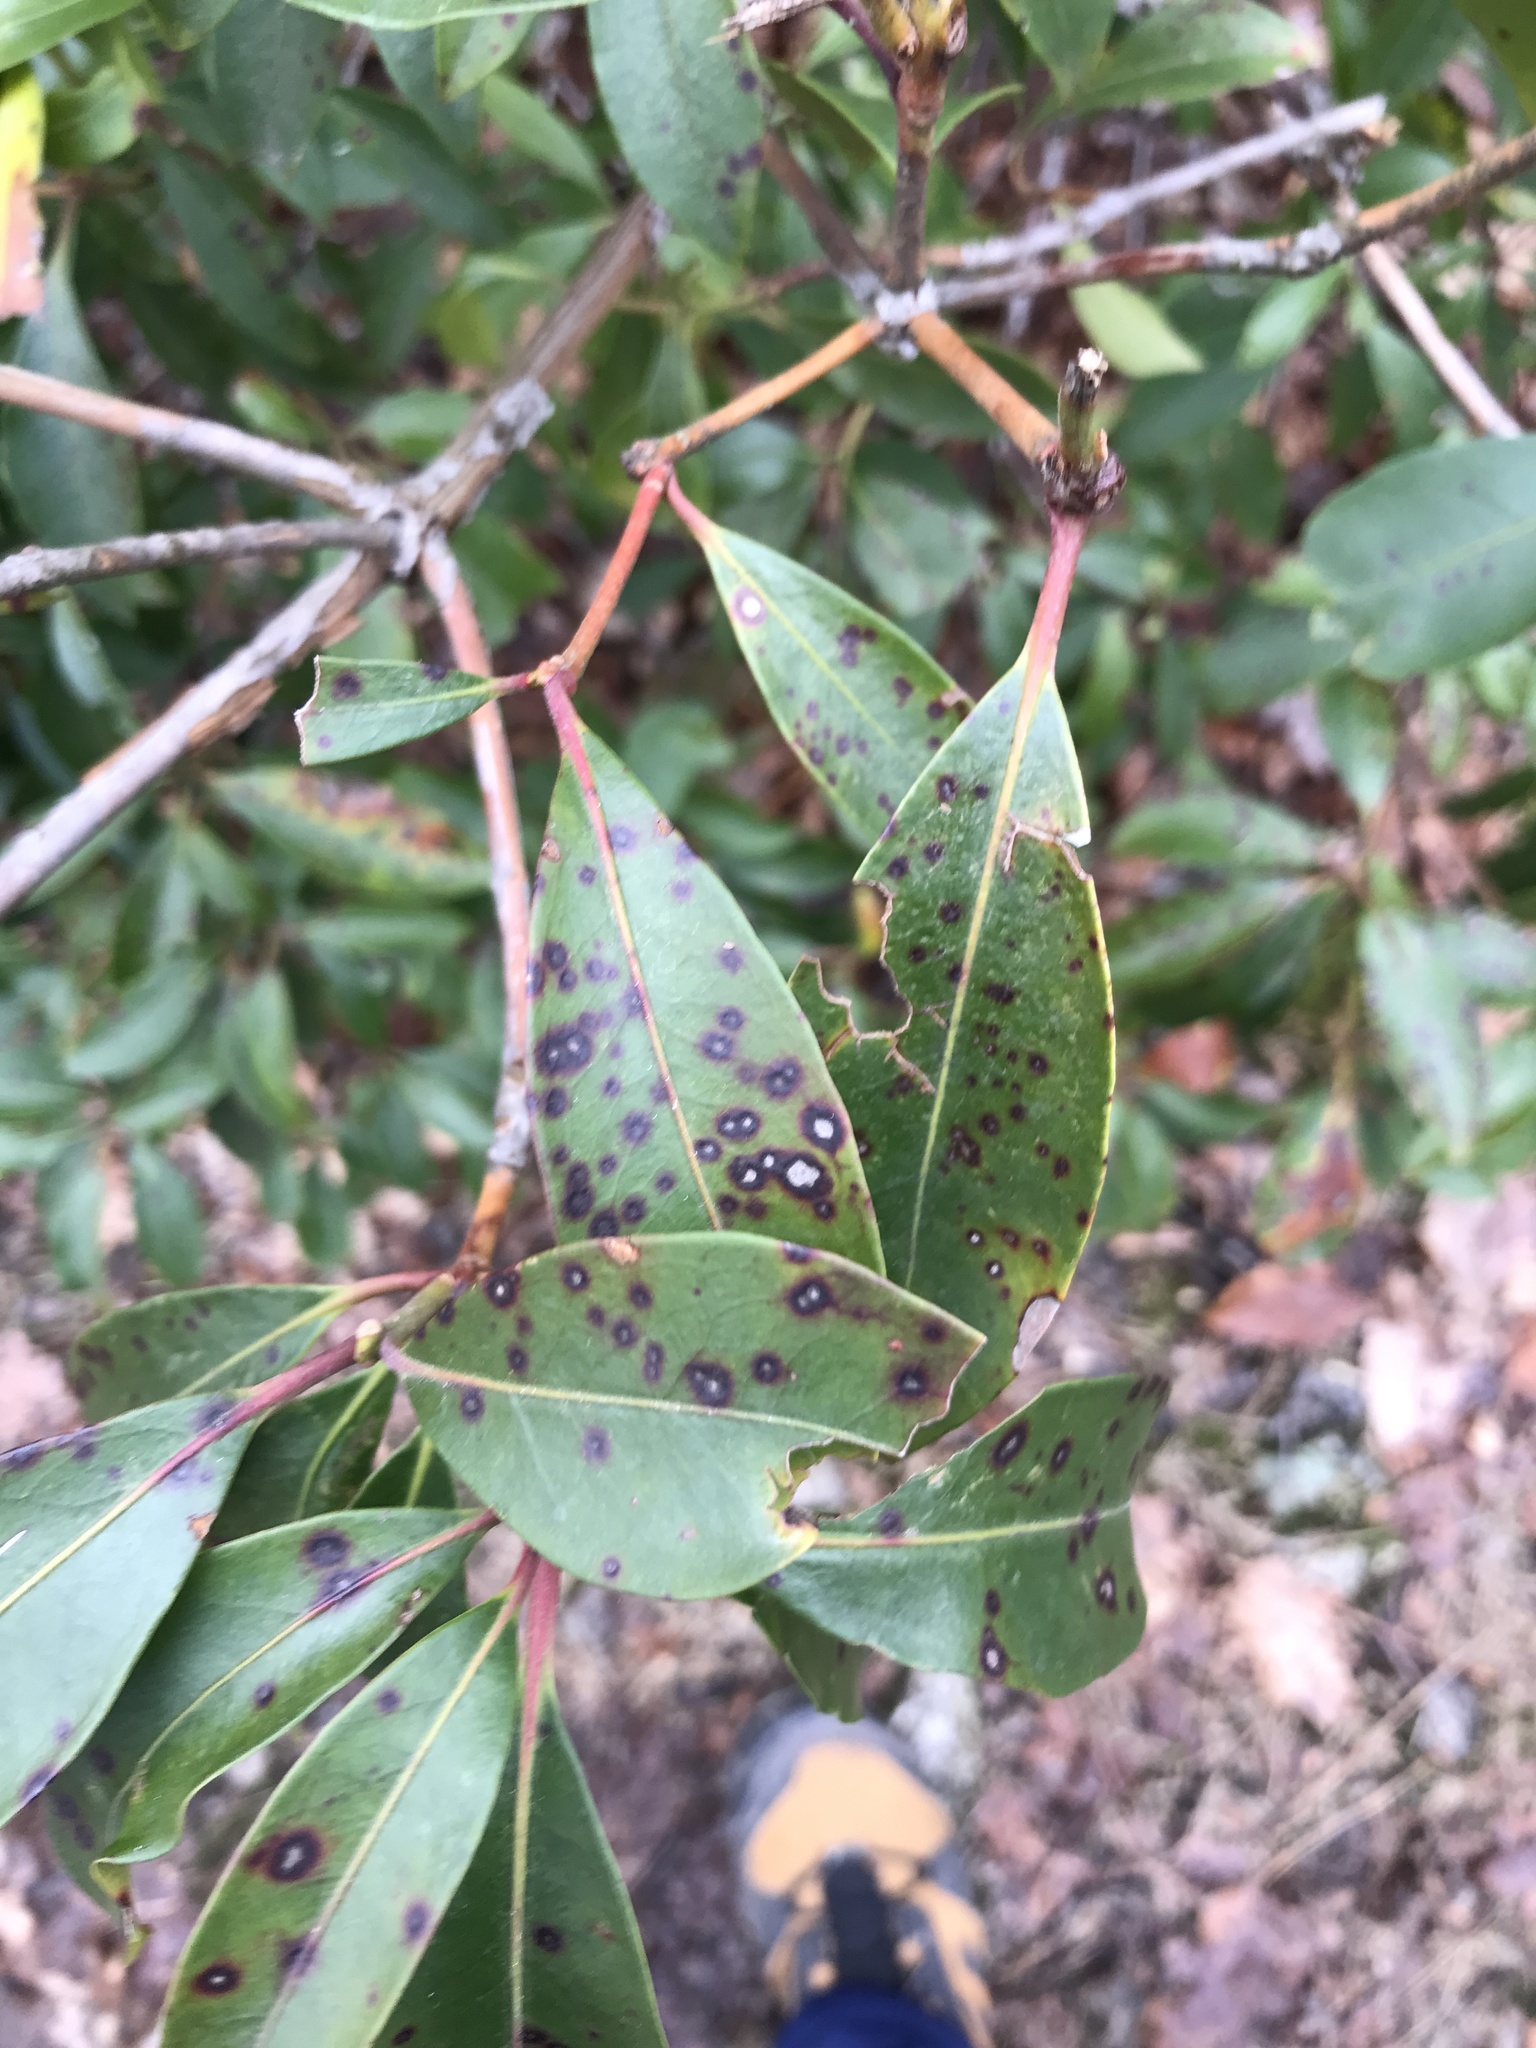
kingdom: Fungi
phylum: Ascomycota
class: Dothideomycetes
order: Mycosphaerellales
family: Mycosphaerellaceae
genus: Mycosphaerella
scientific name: Mycosphaerella colorata
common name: Mountain laurel leaf spot
